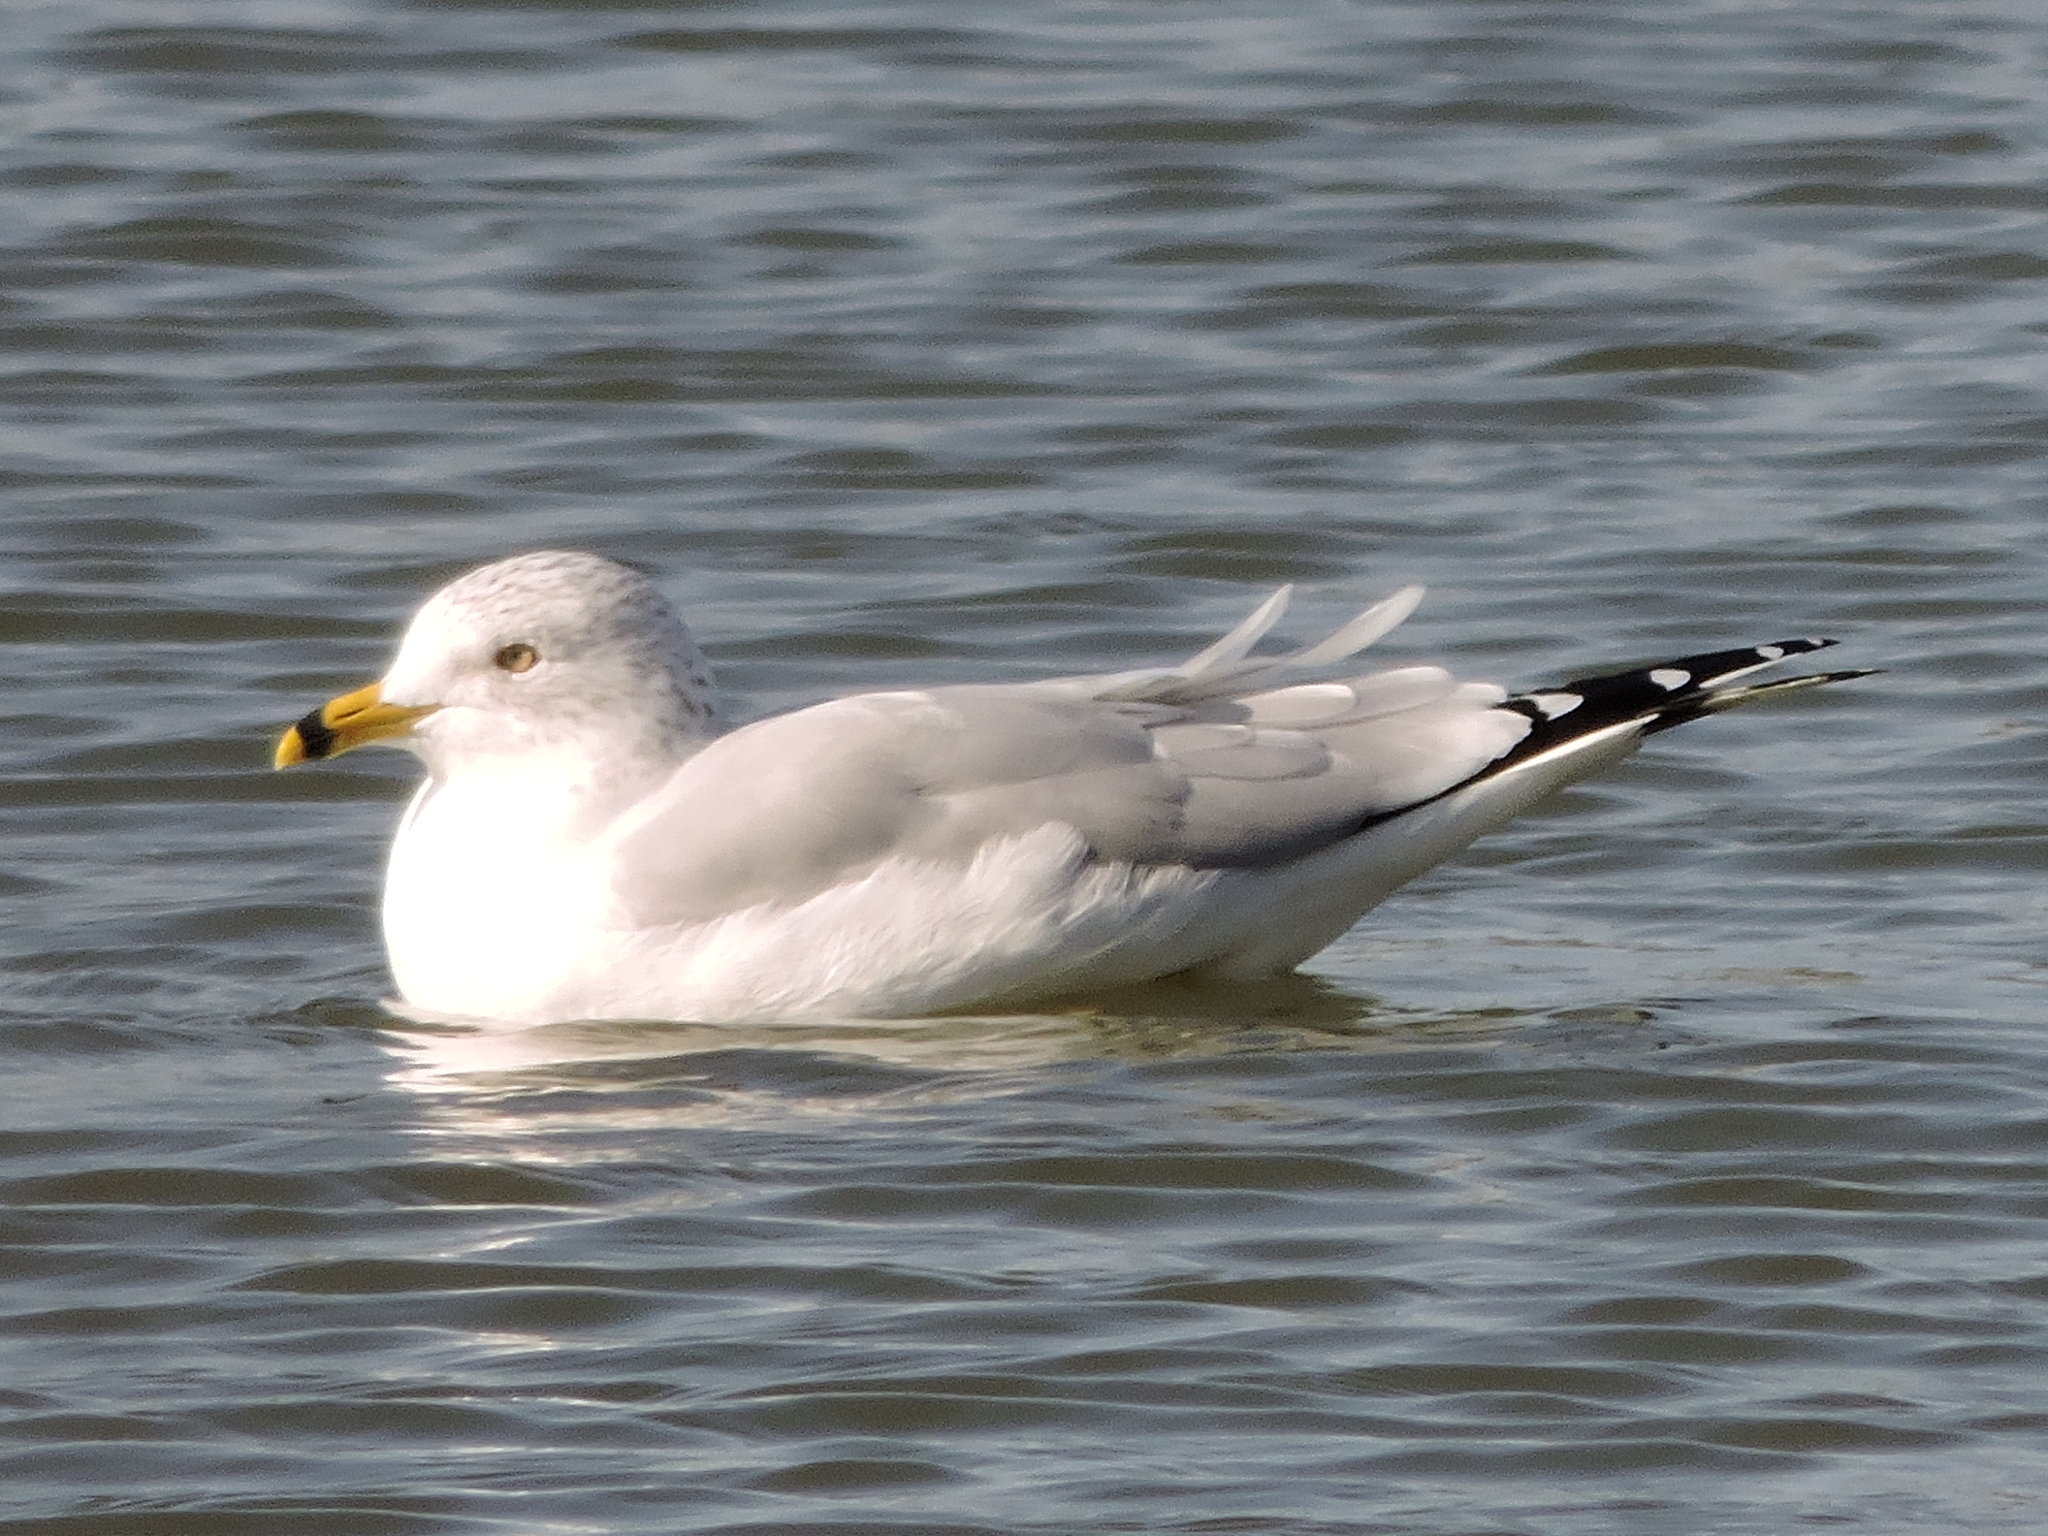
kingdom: Animalia
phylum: Chordata
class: Aves
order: Charadriiformes
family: Laridae
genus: Larus
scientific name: Larus delawarensis
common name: Ring-billed gull
